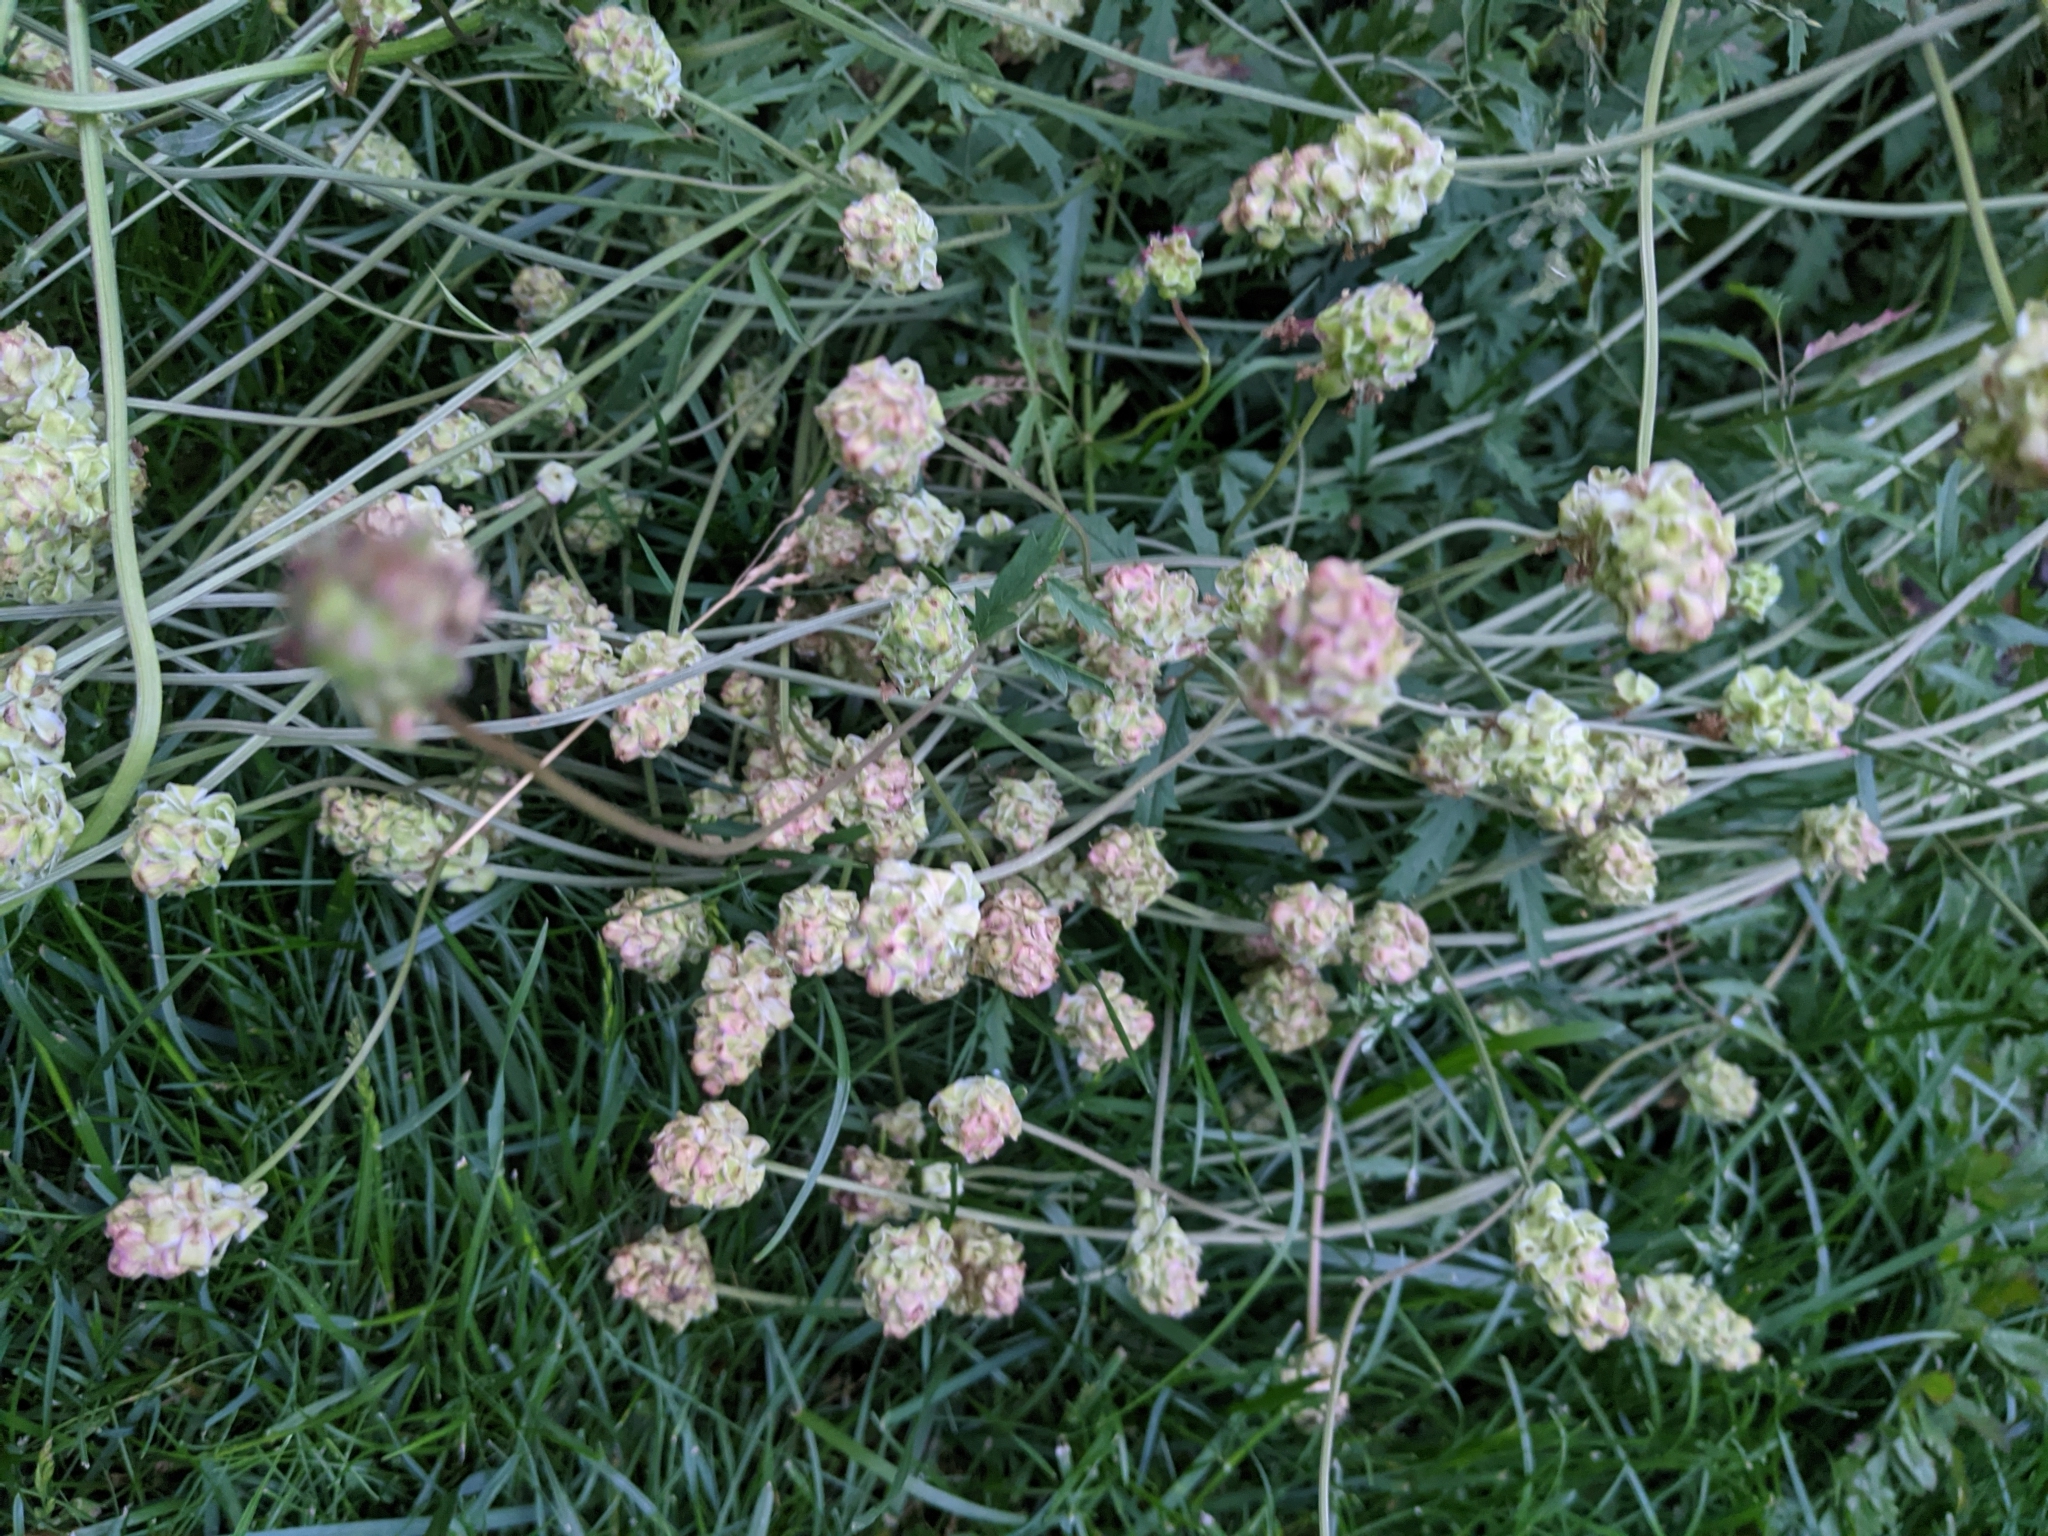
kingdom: Plantae
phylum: Tracheophyta
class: Magnoliopsida
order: Rosales
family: Rosaceae
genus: Poterium
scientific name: Poterium sanguisorba
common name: Salad burnet
